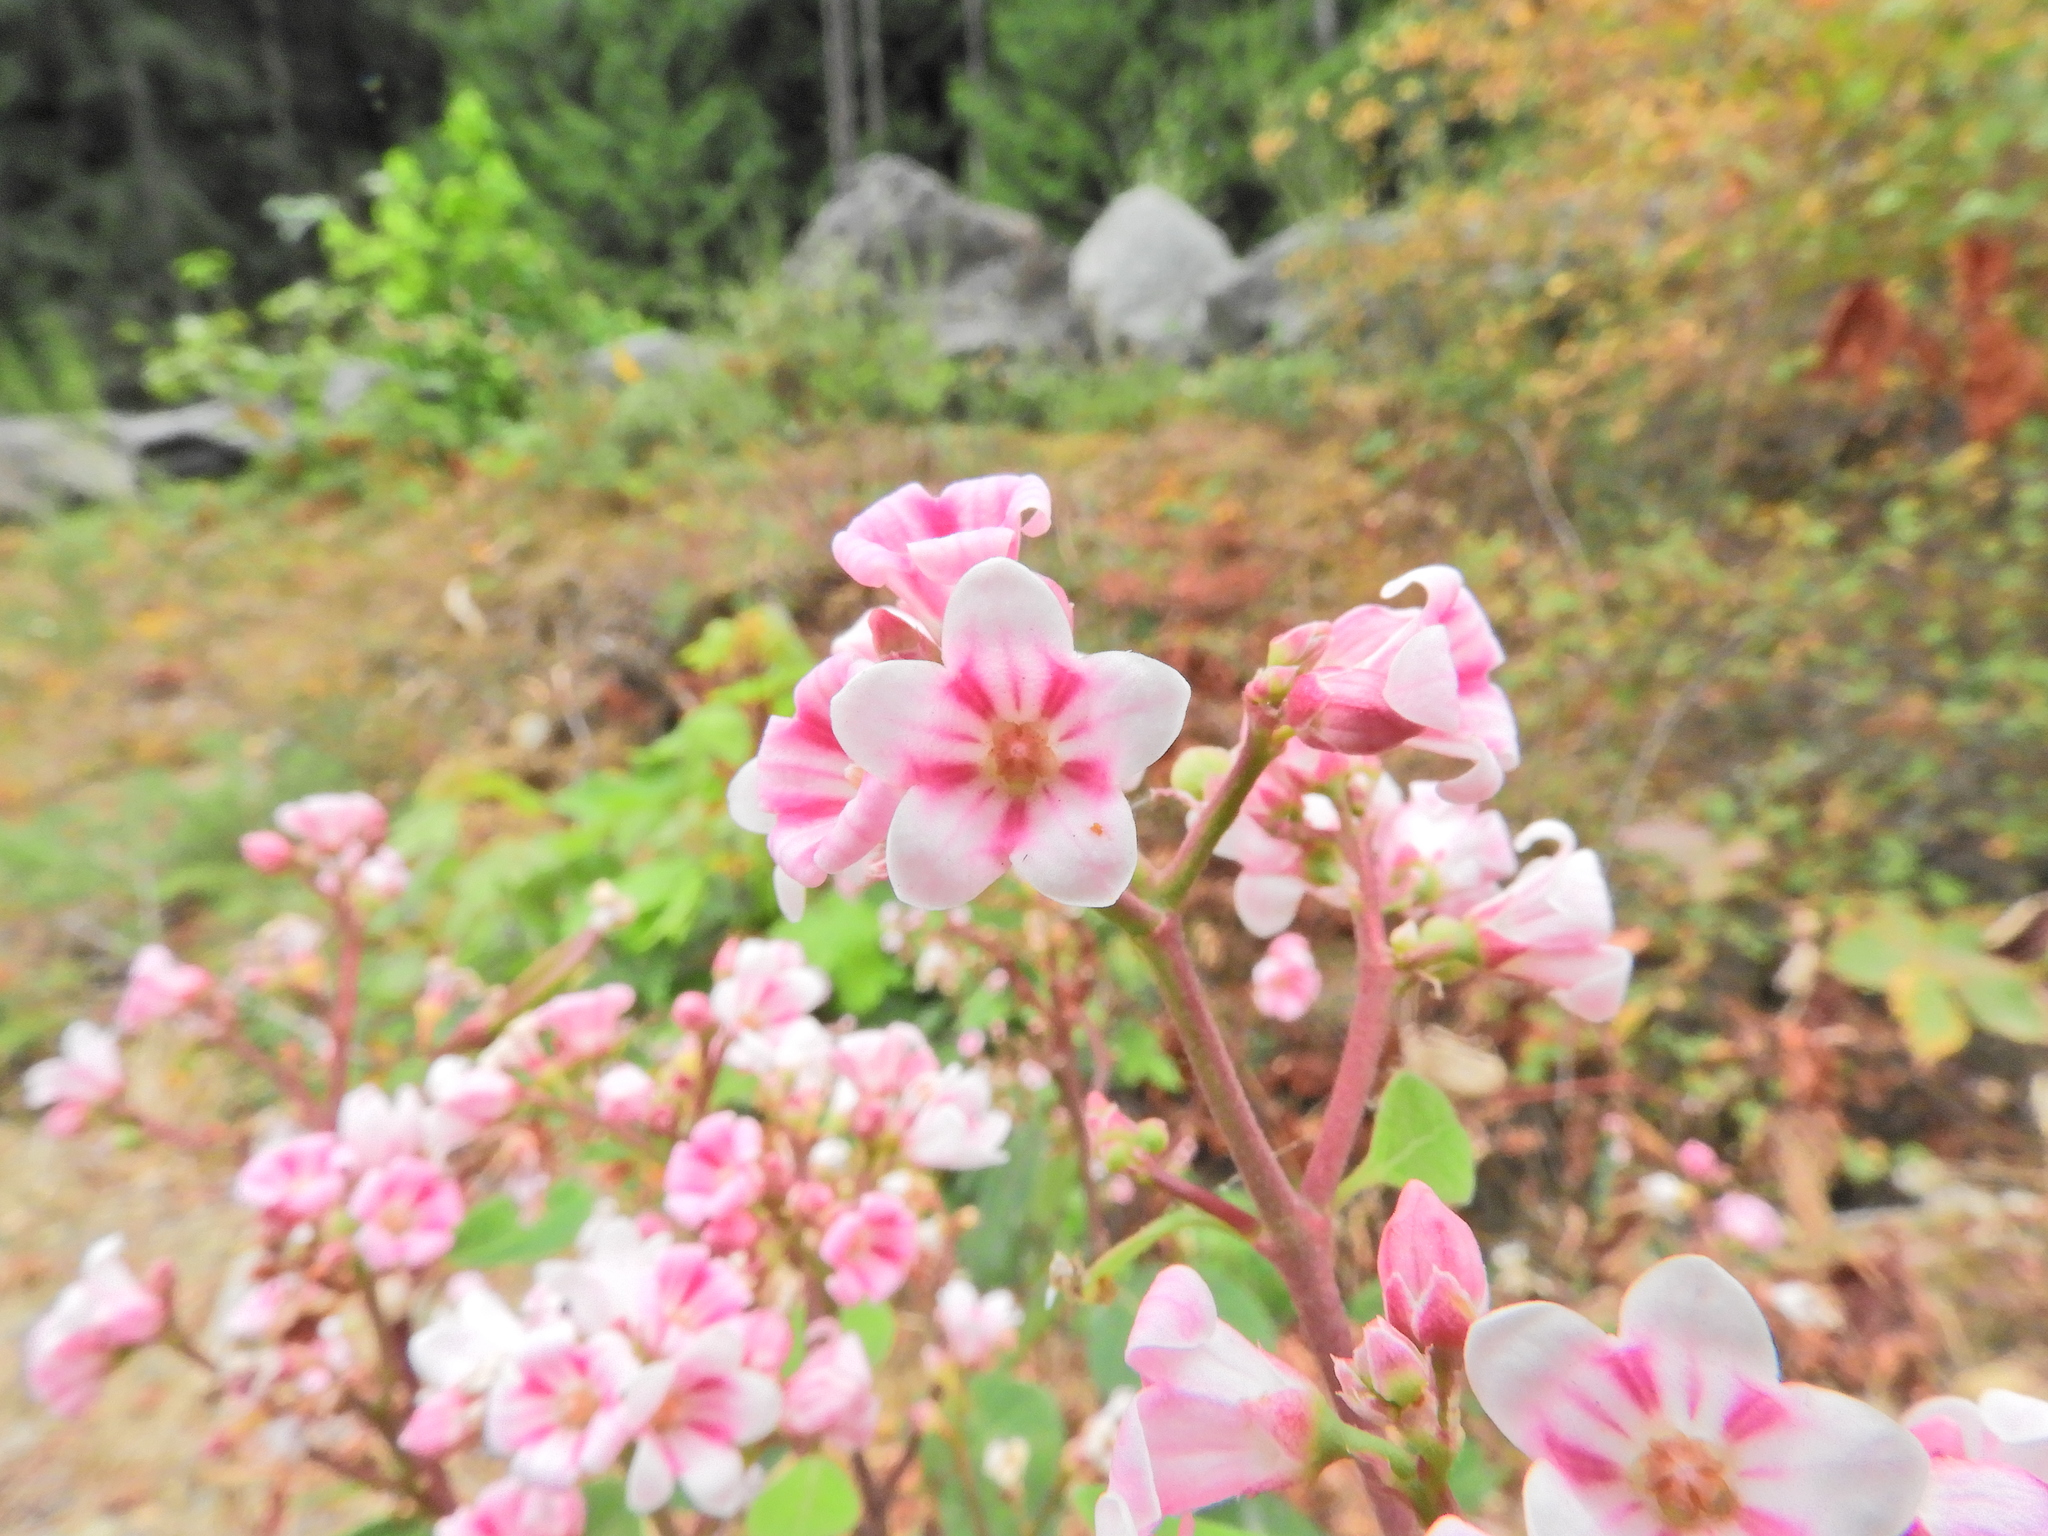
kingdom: Plantae
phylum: Tracheophyta
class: Magnoliopsida
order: Gentianales
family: Apocynaceae
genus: Apocynum
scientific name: Apocynum androsaemifolium
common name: Spreading dogbane
